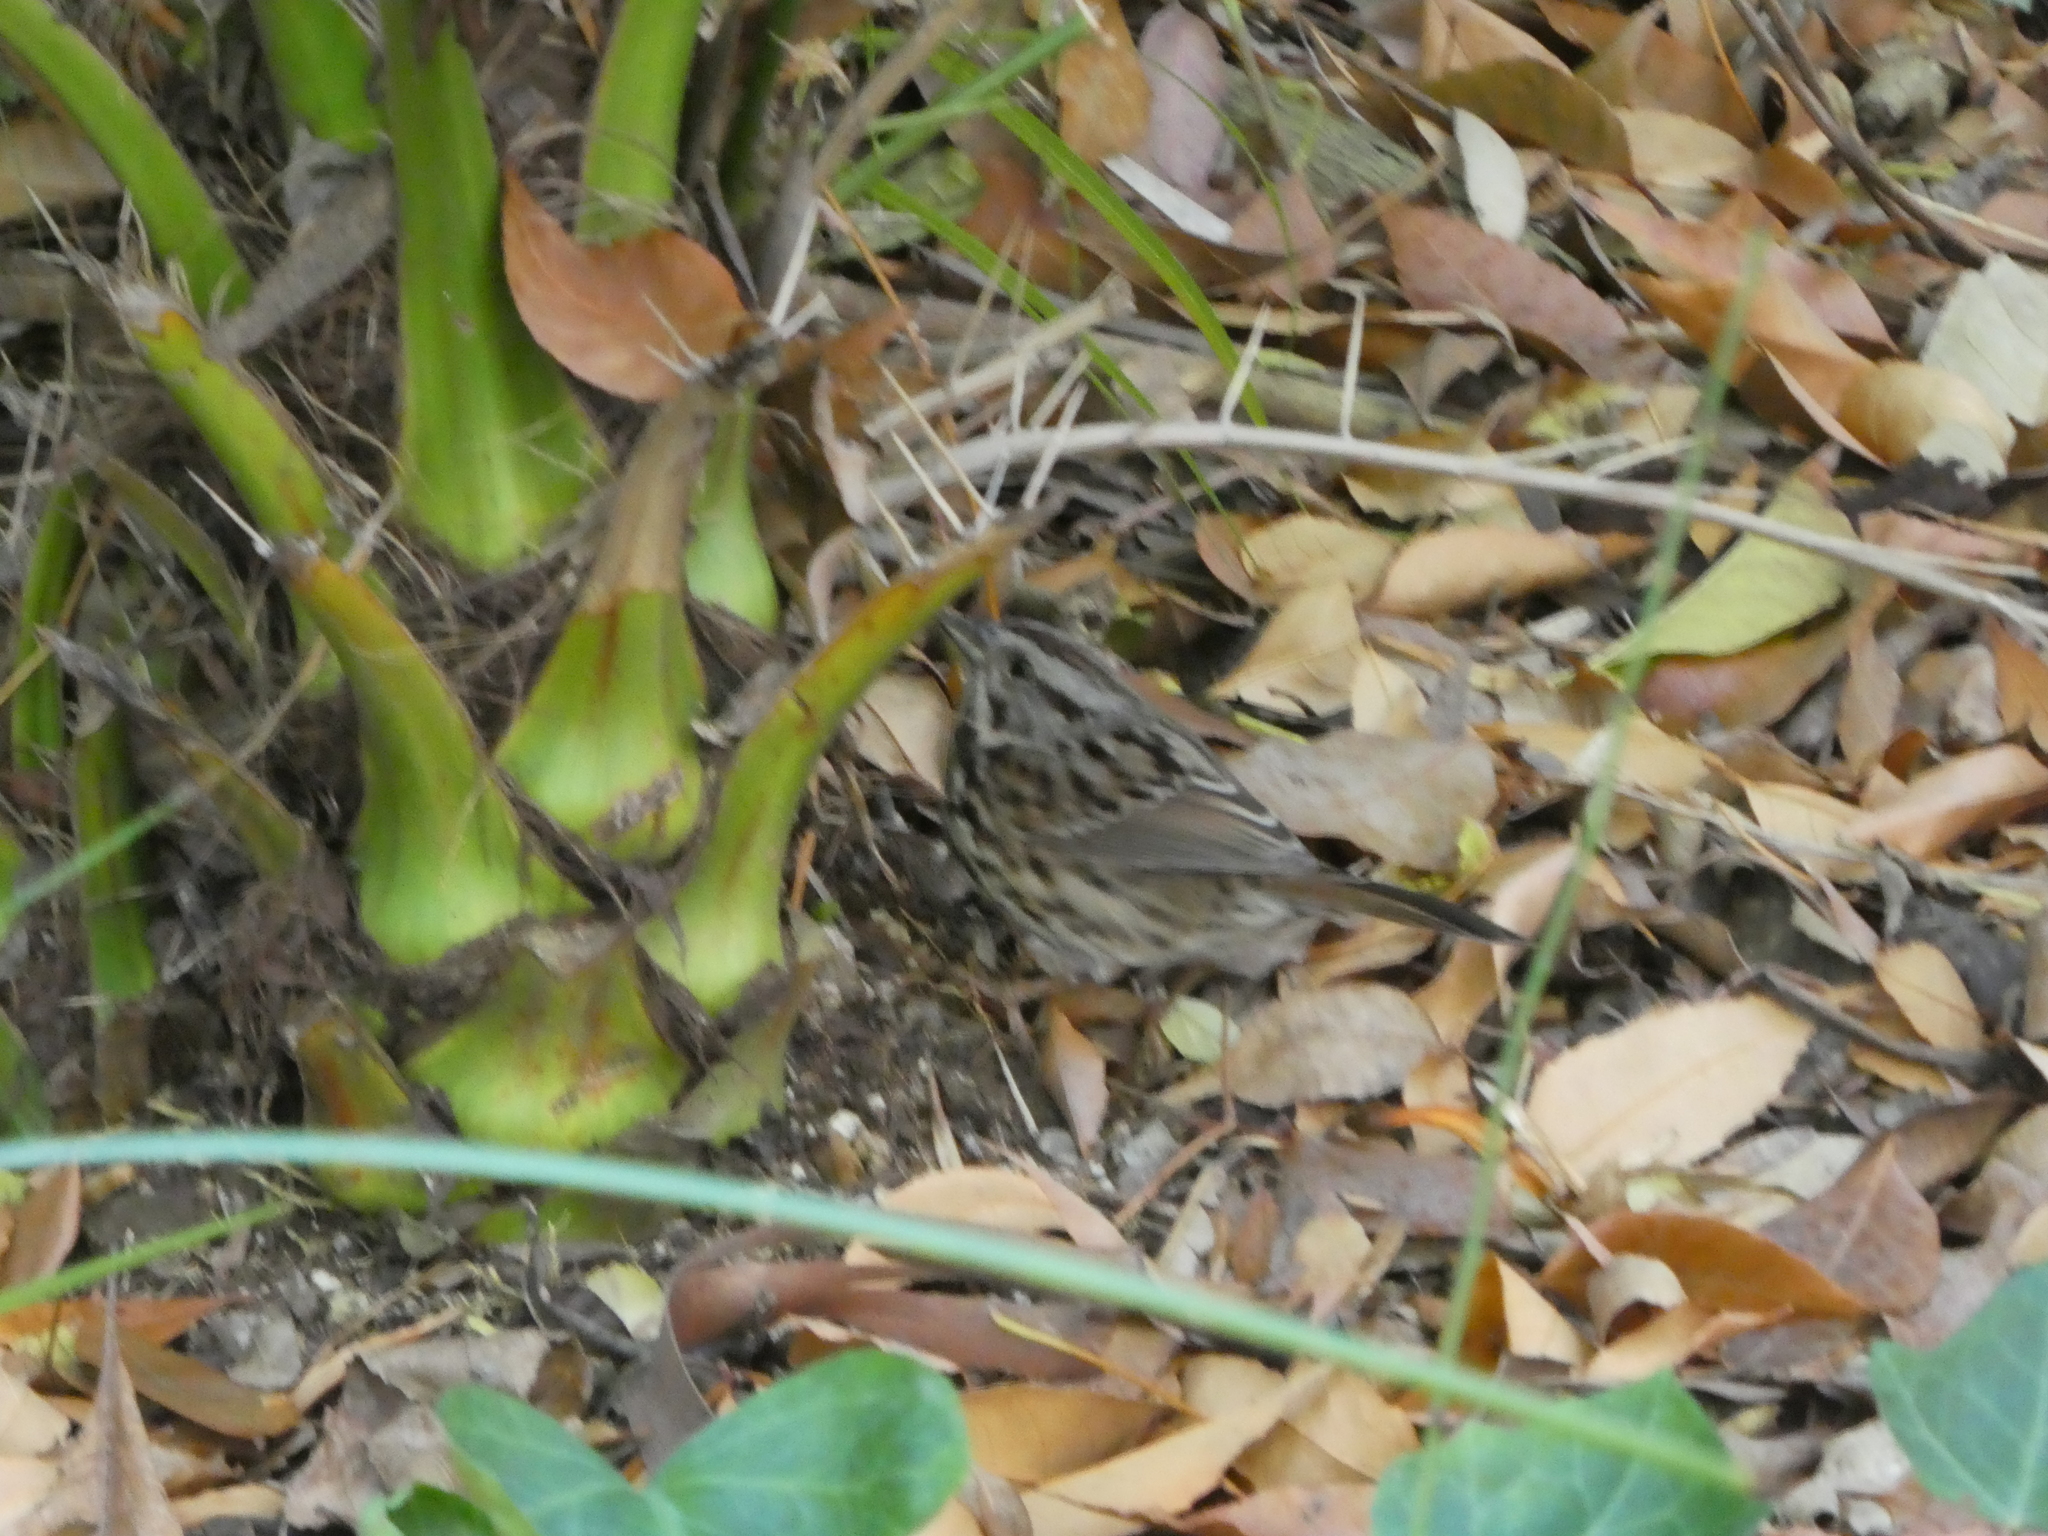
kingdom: Animalia
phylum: Chordata
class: Aves
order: Passeriformes
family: Passerellidae
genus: Melospiza
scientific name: Melospiza melodia
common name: Song sparrow
